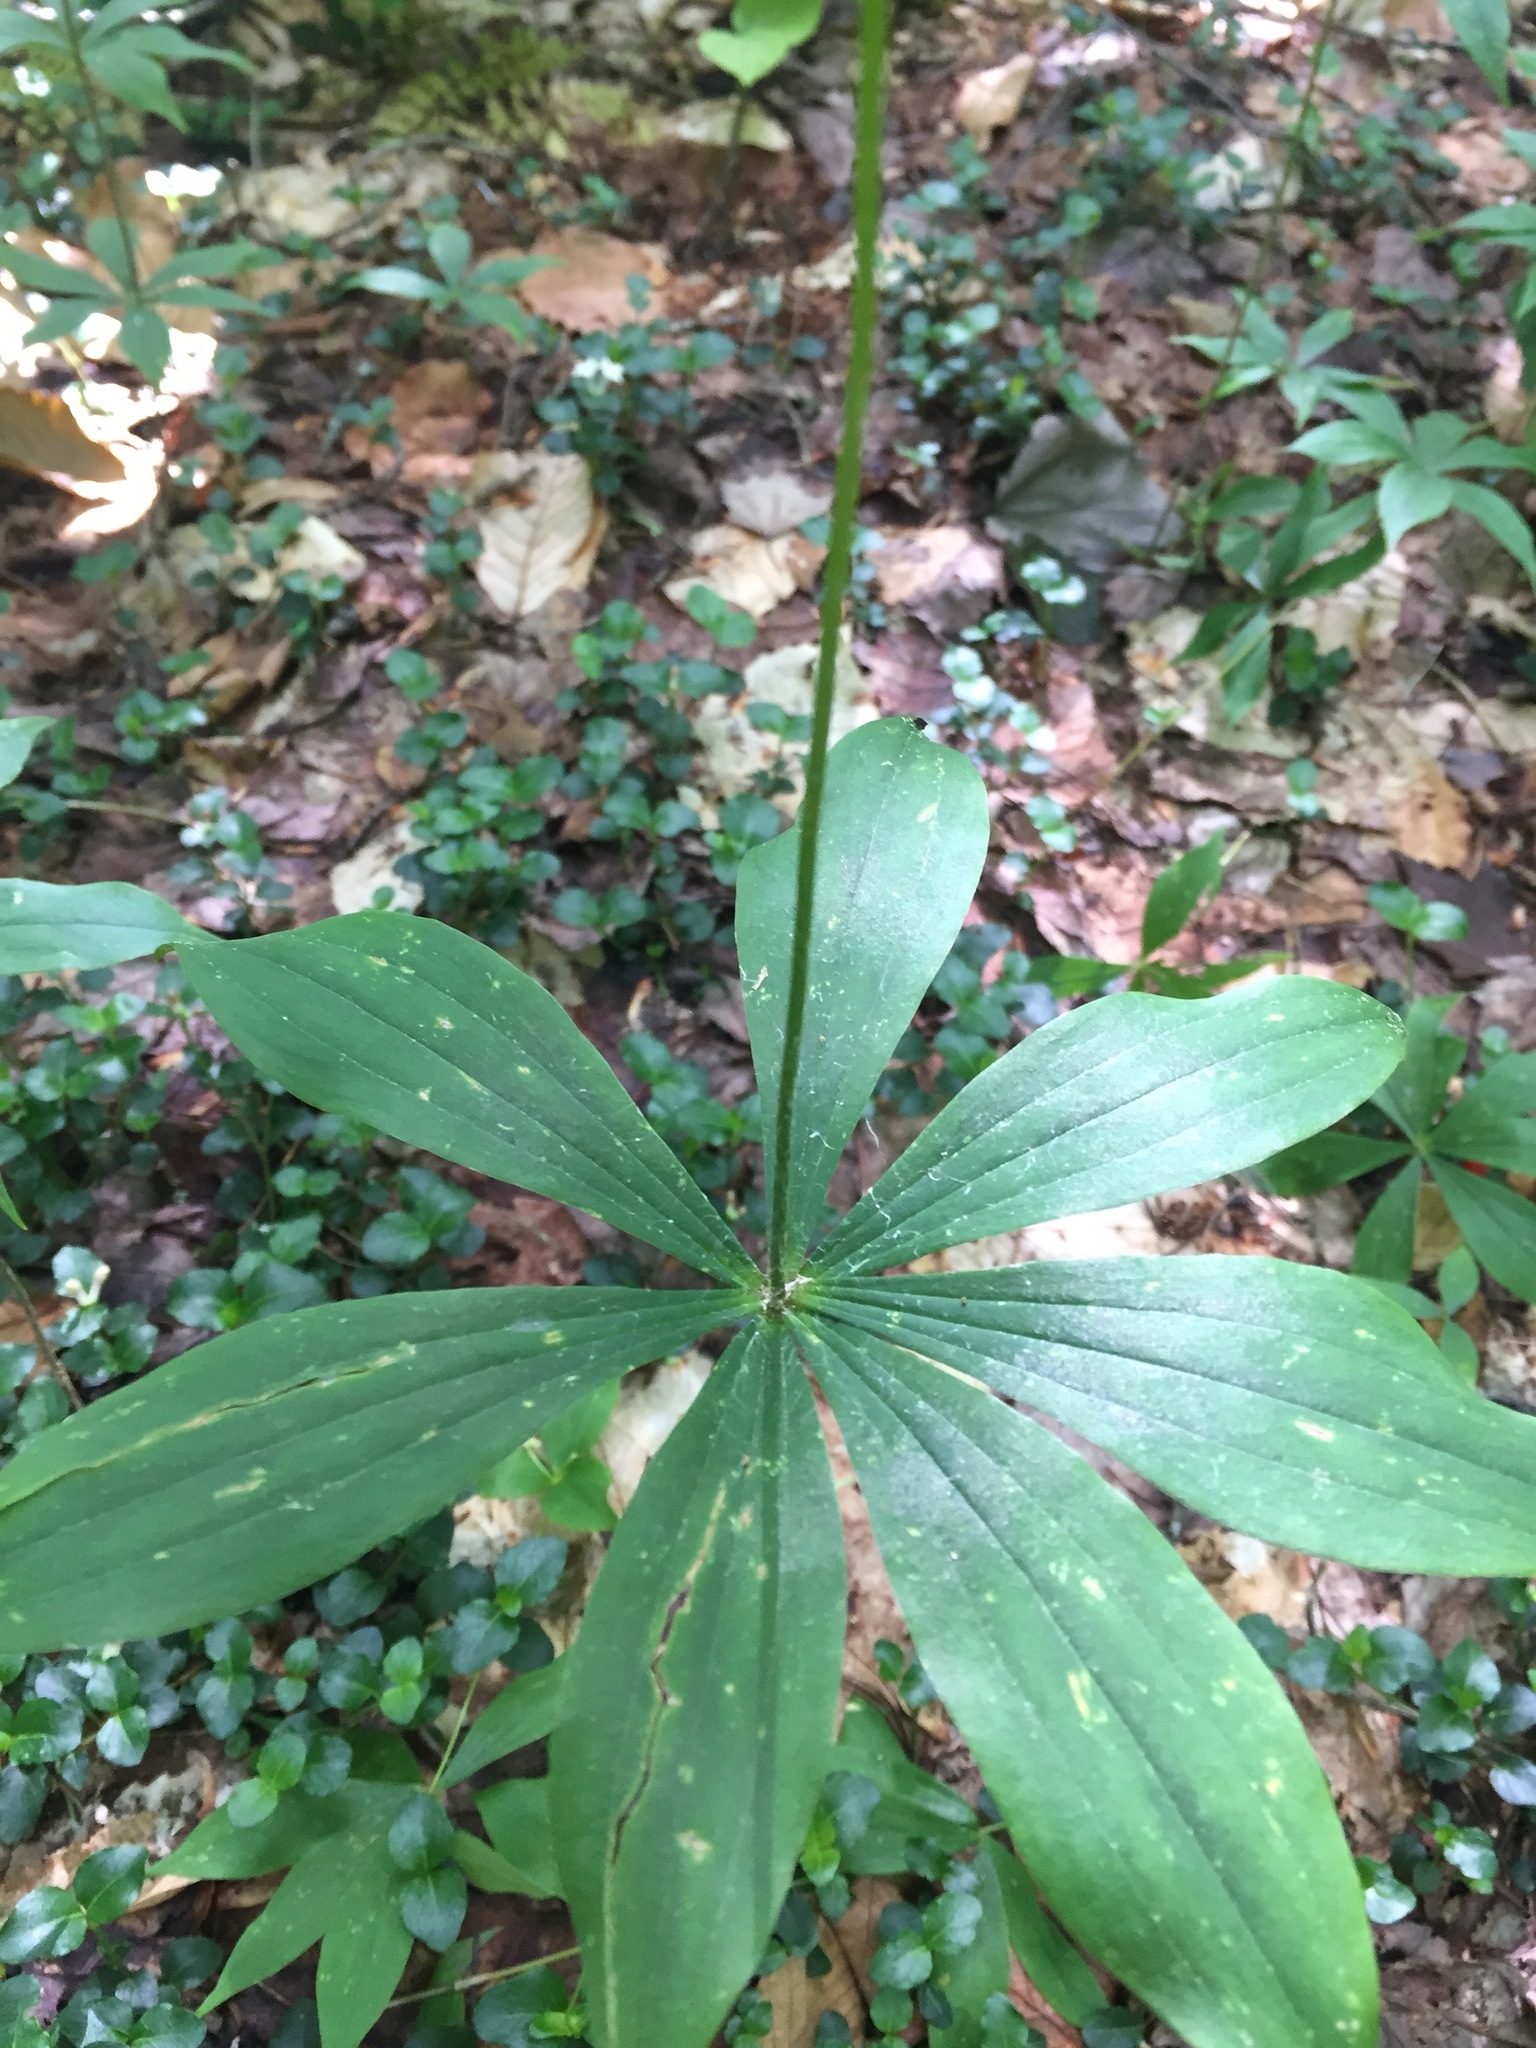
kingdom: Plantae
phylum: Tracheophyta
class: Liliopsida
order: Liliales
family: Liliaceae
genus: Medeola
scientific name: Medeola virginiana
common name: Indian cucumber-root
